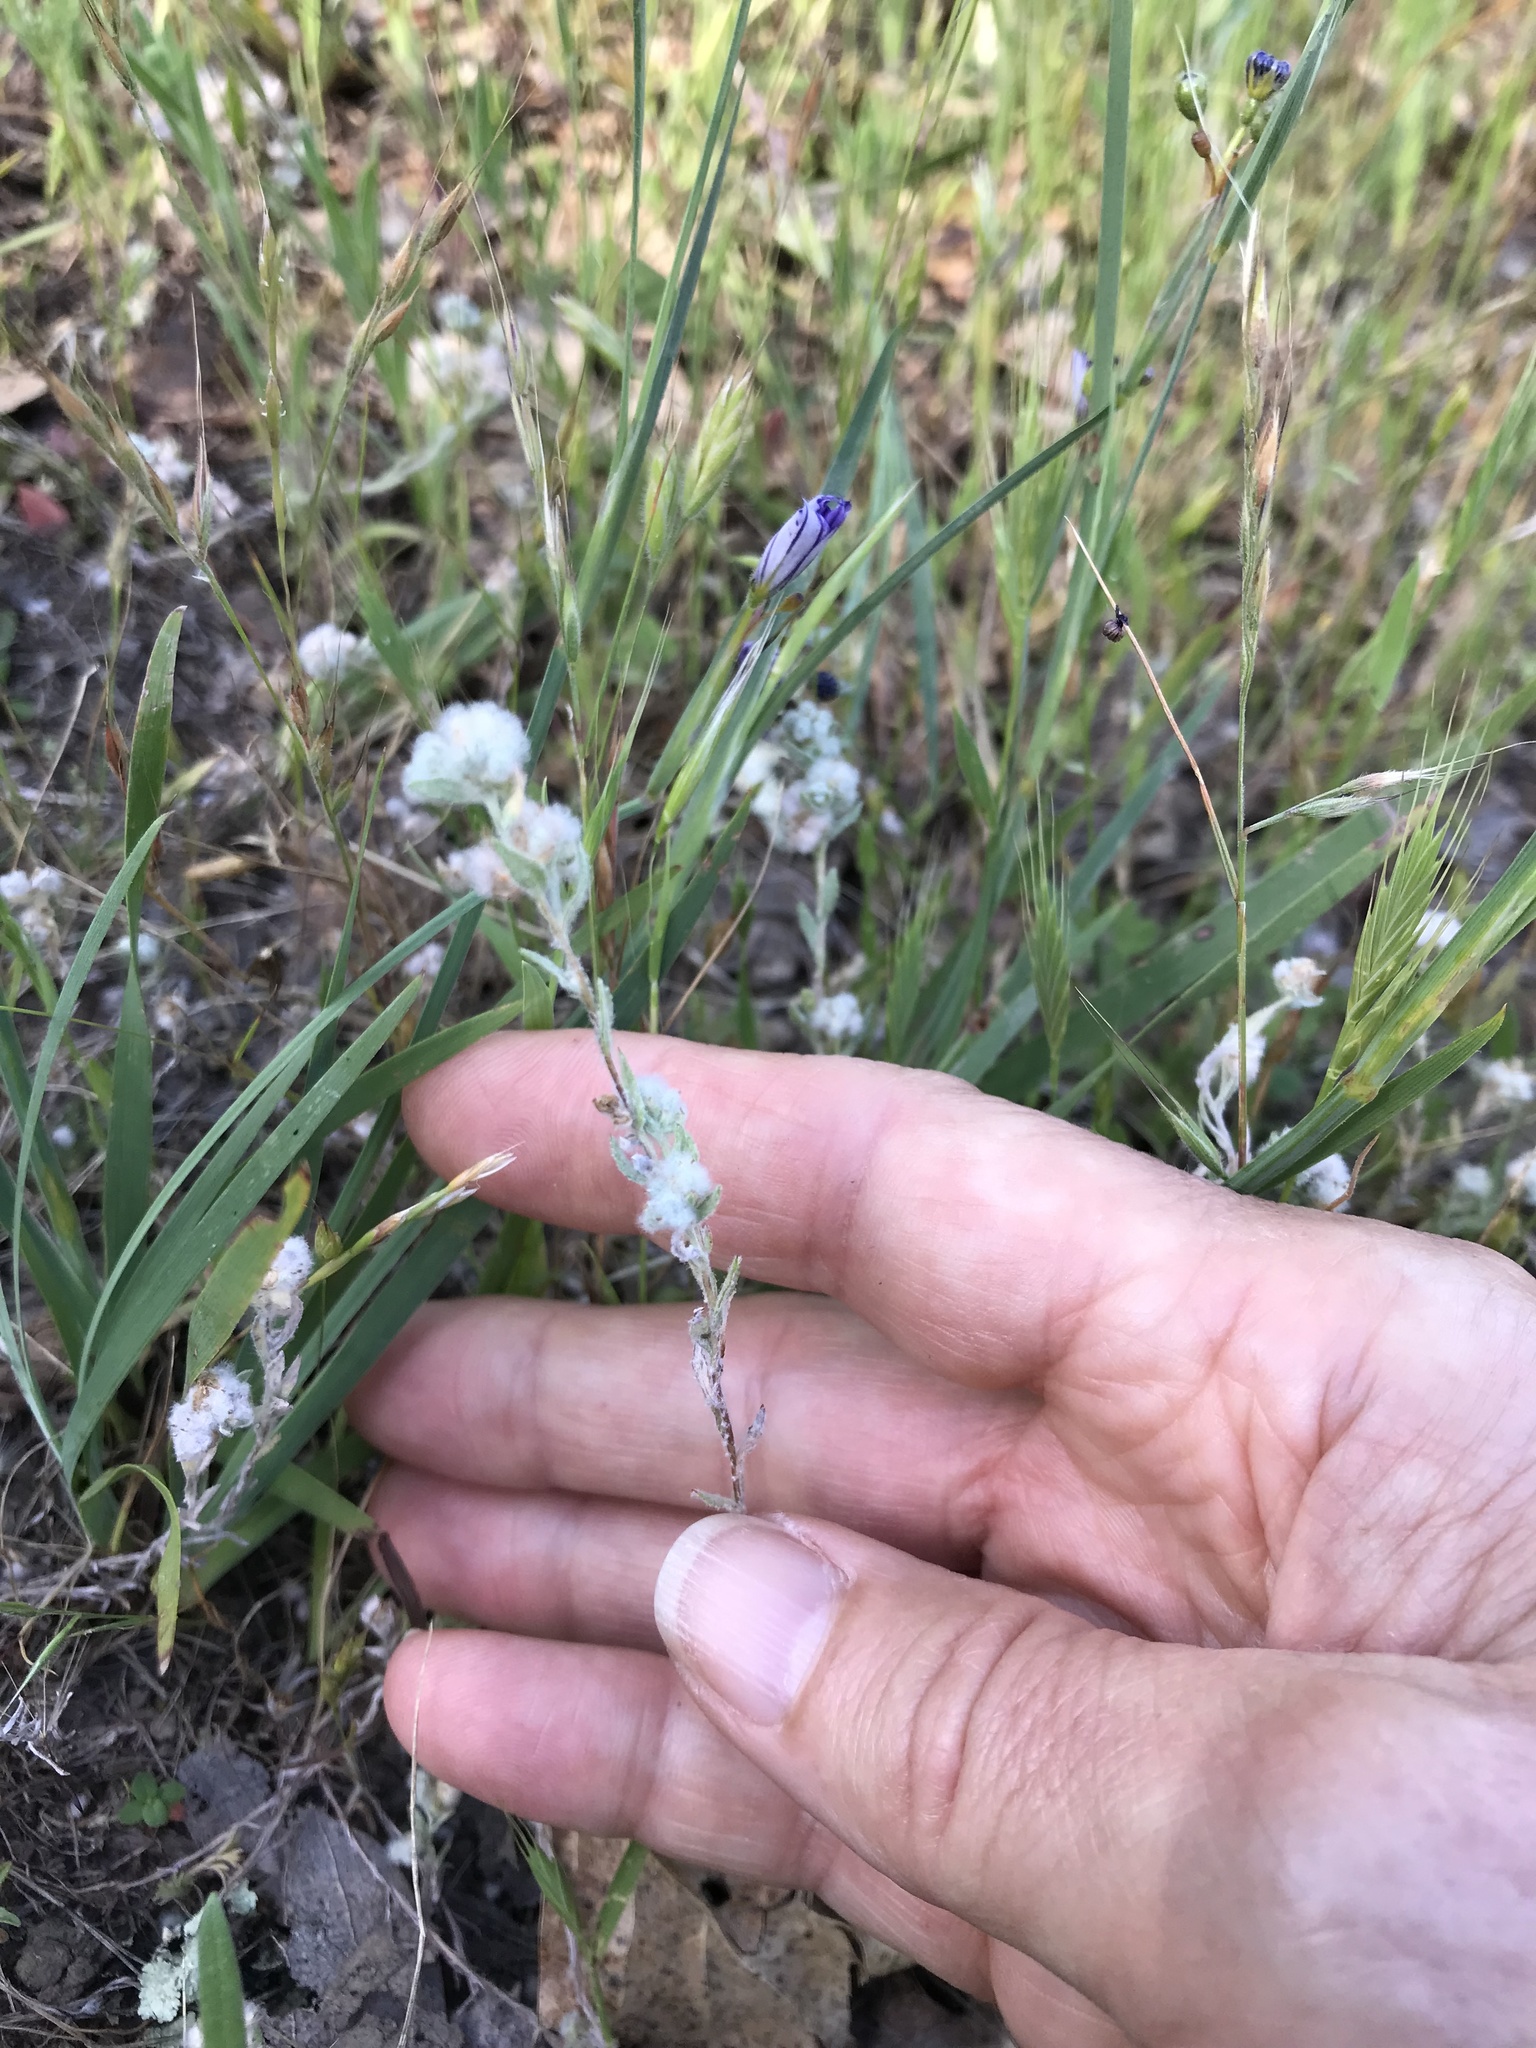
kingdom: Plantae
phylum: Tracheophyta
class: Magnoliopsida
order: Asterales
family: Asteraceae
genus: Bombycilaena
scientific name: Bombycilaena californica
